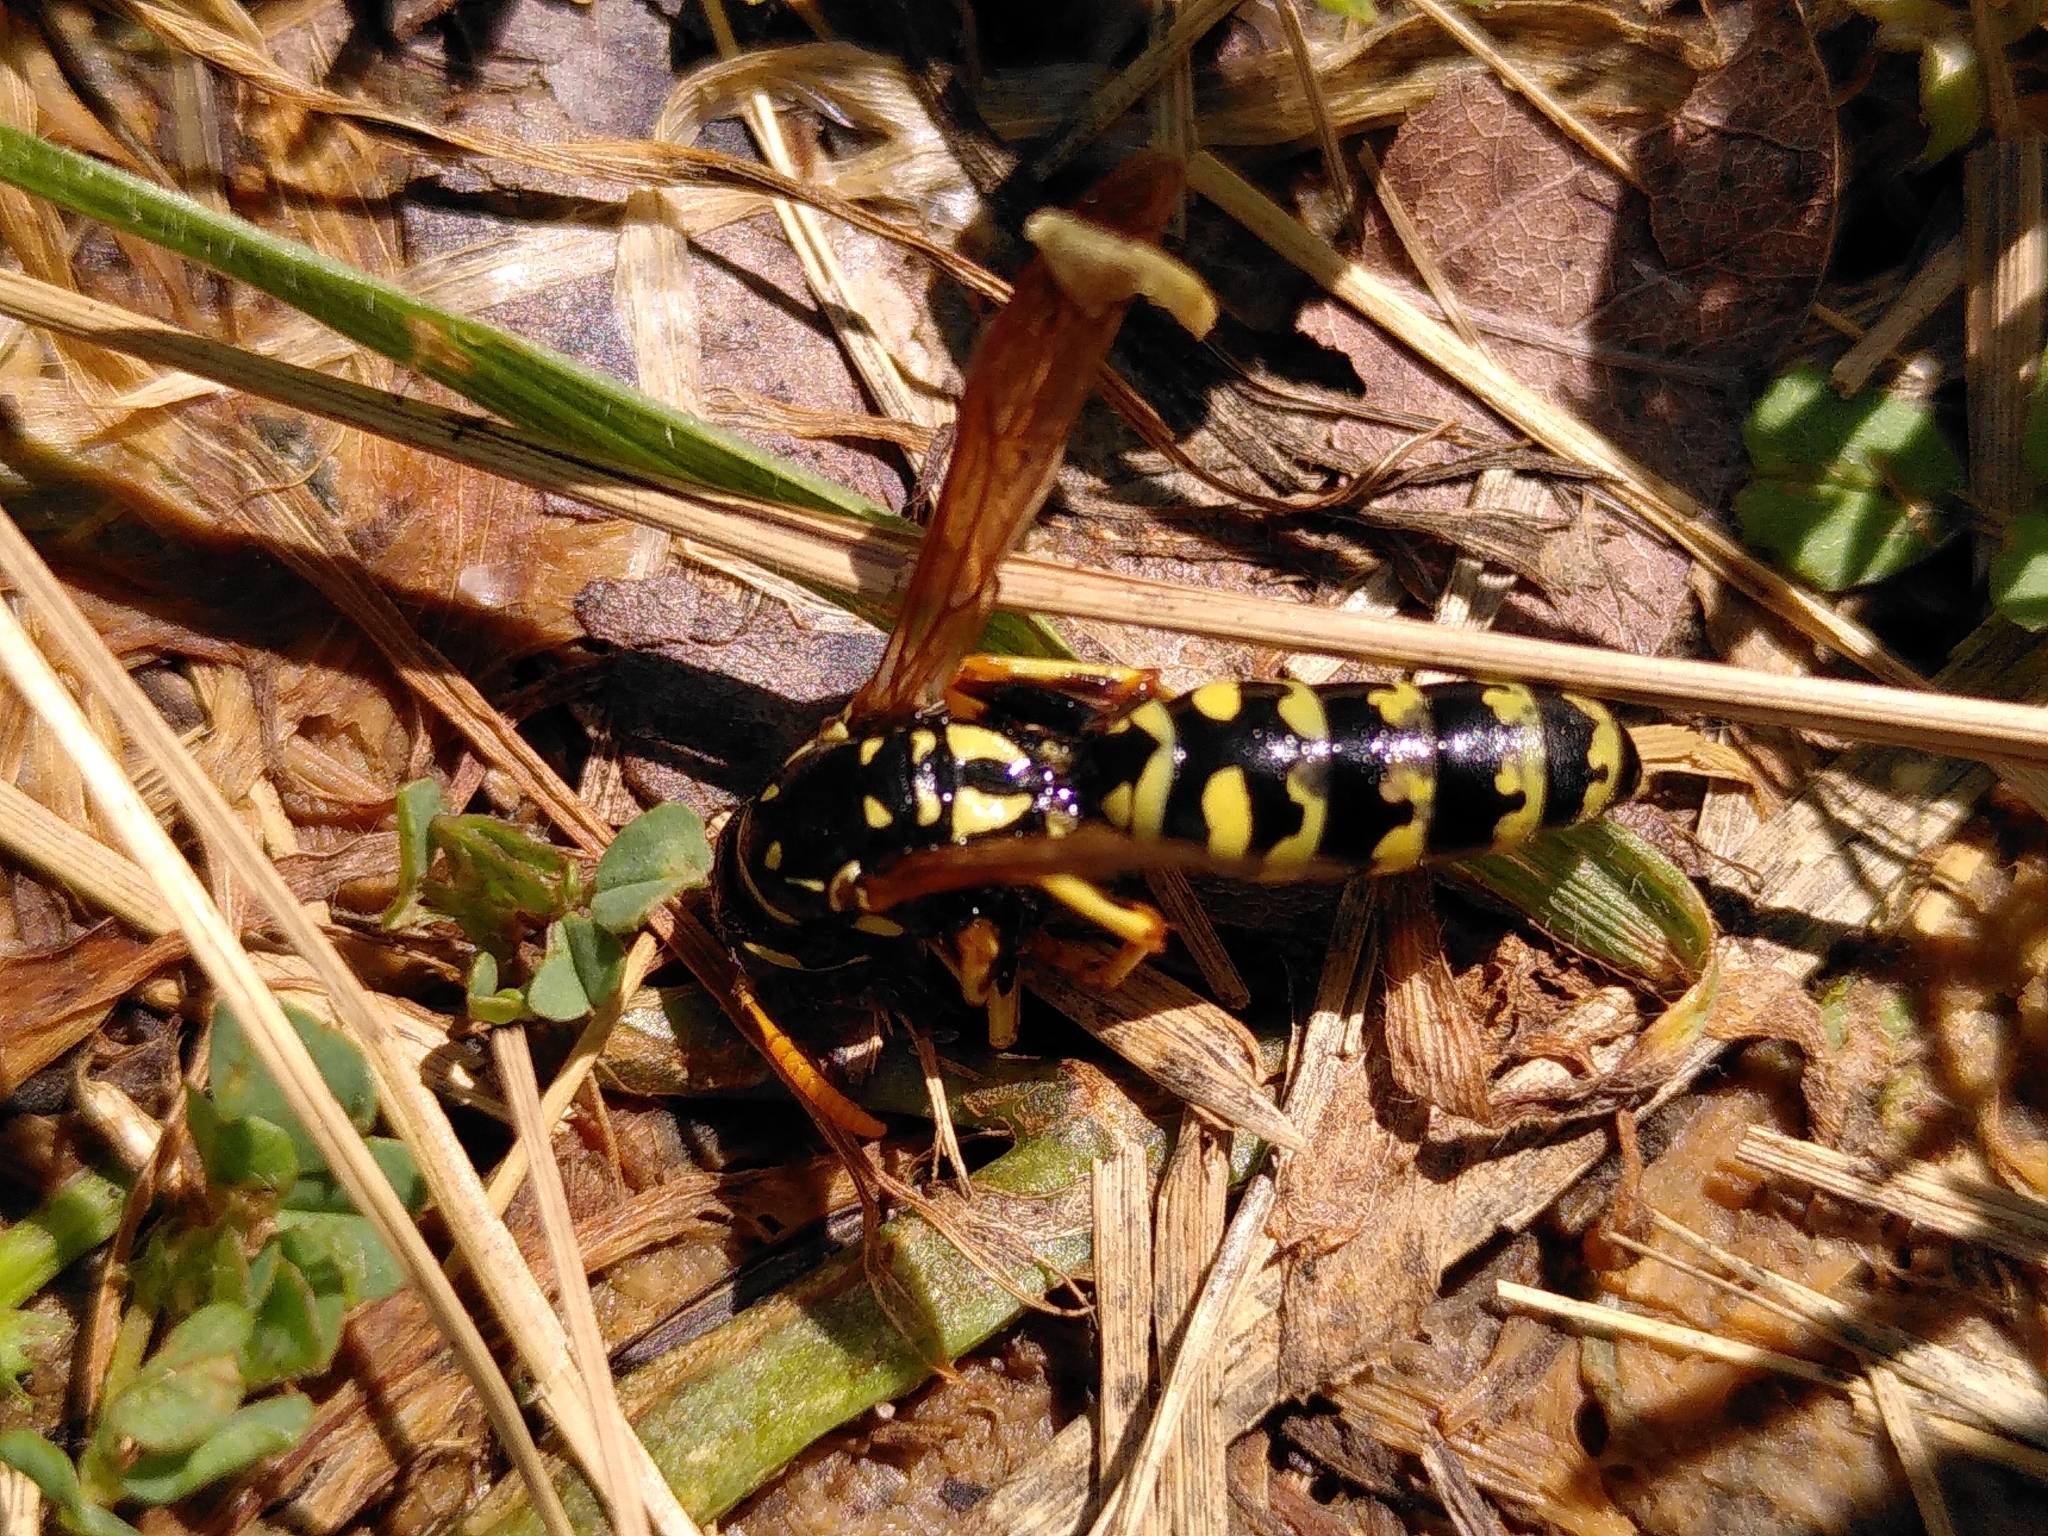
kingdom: Animalia
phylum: Arthropoda
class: Insecta
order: Hymenoptera
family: Eumenidae
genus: Polistes
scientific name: Polistes dominula
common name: Paper wasp
